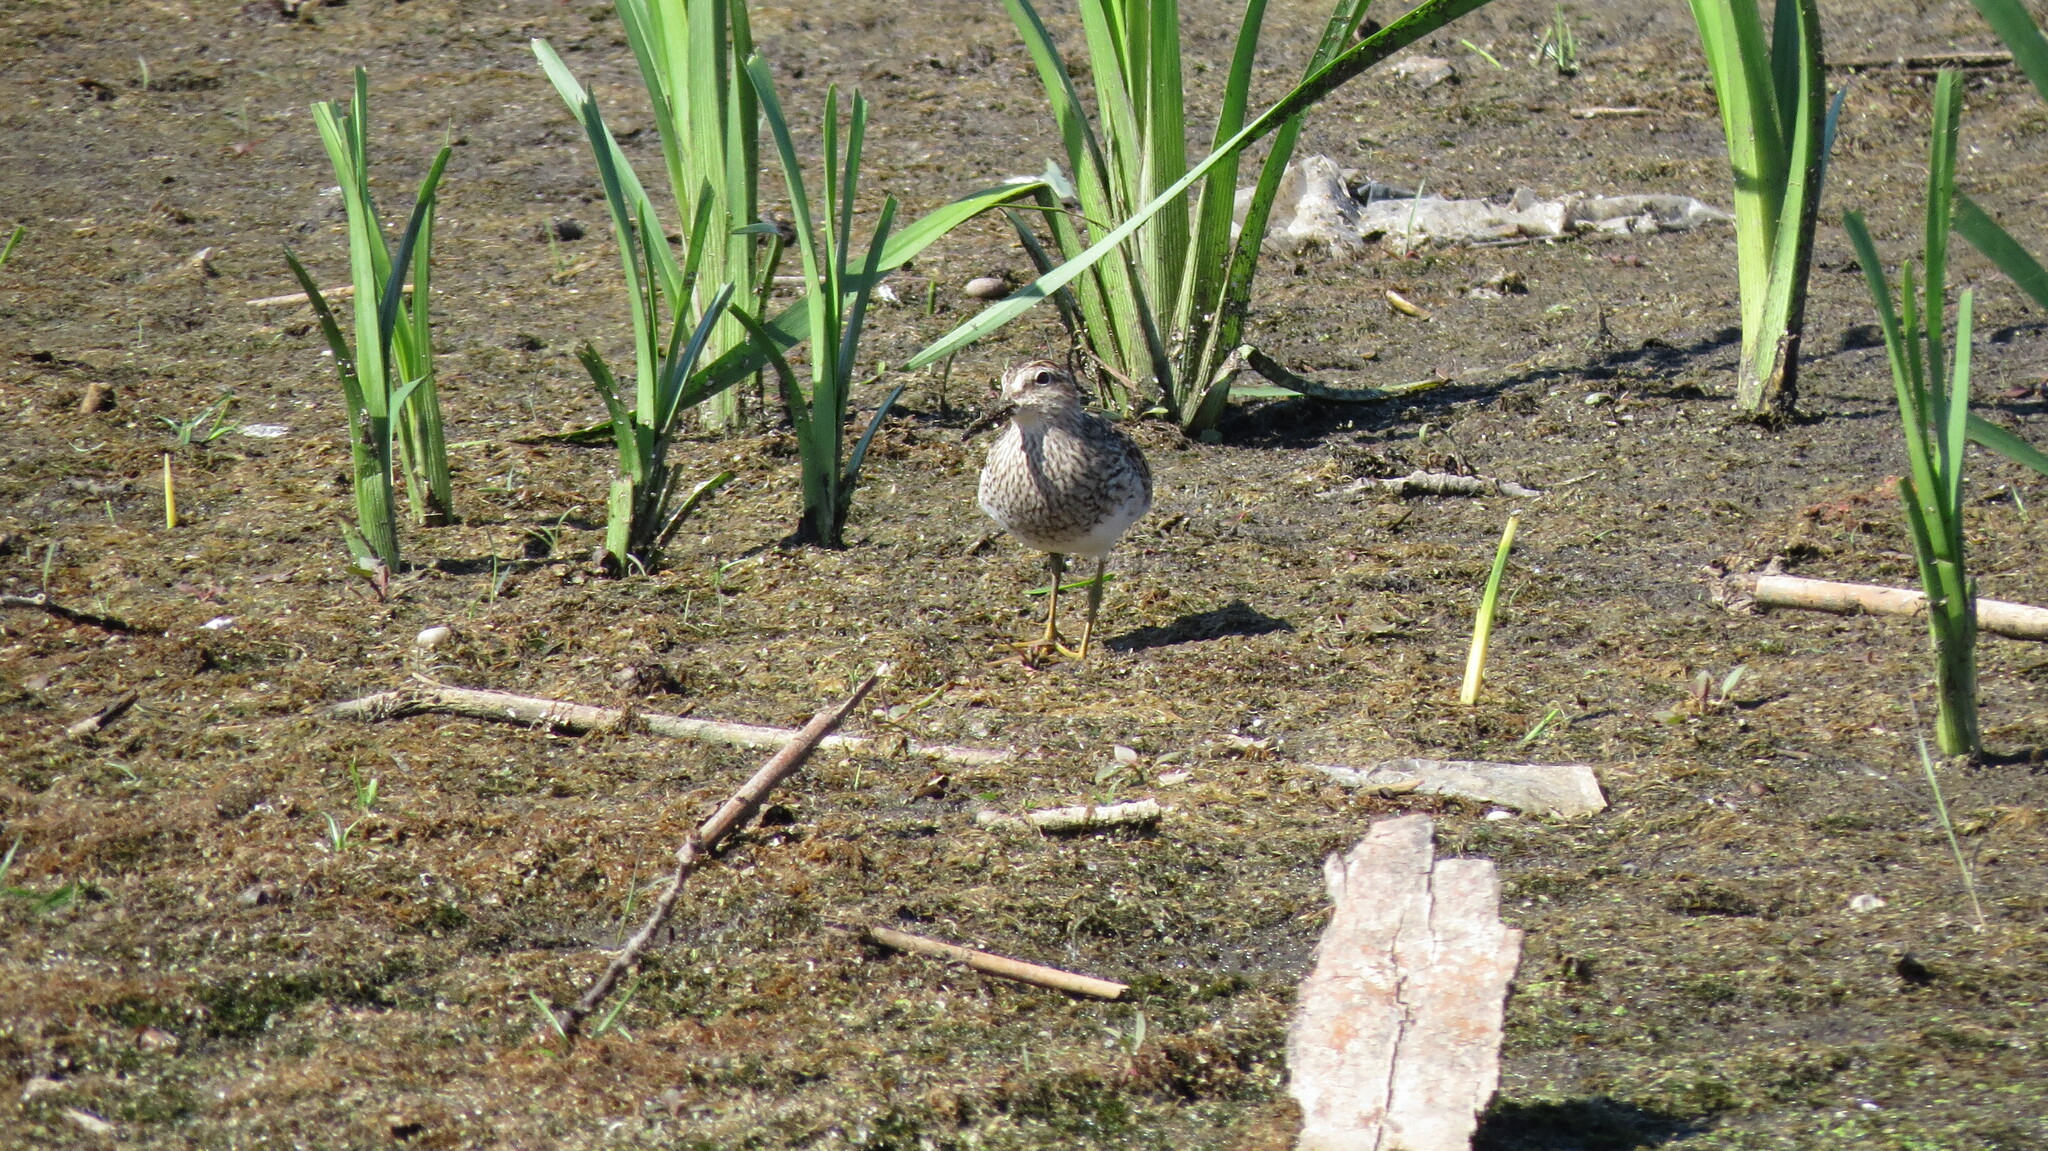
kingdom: Animalia
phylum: Chordata
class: Aves
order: Charadriiformes
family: Scolopacidae
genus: Calidris
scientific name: Calidris melanotos
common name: Pectoral sandpiper
